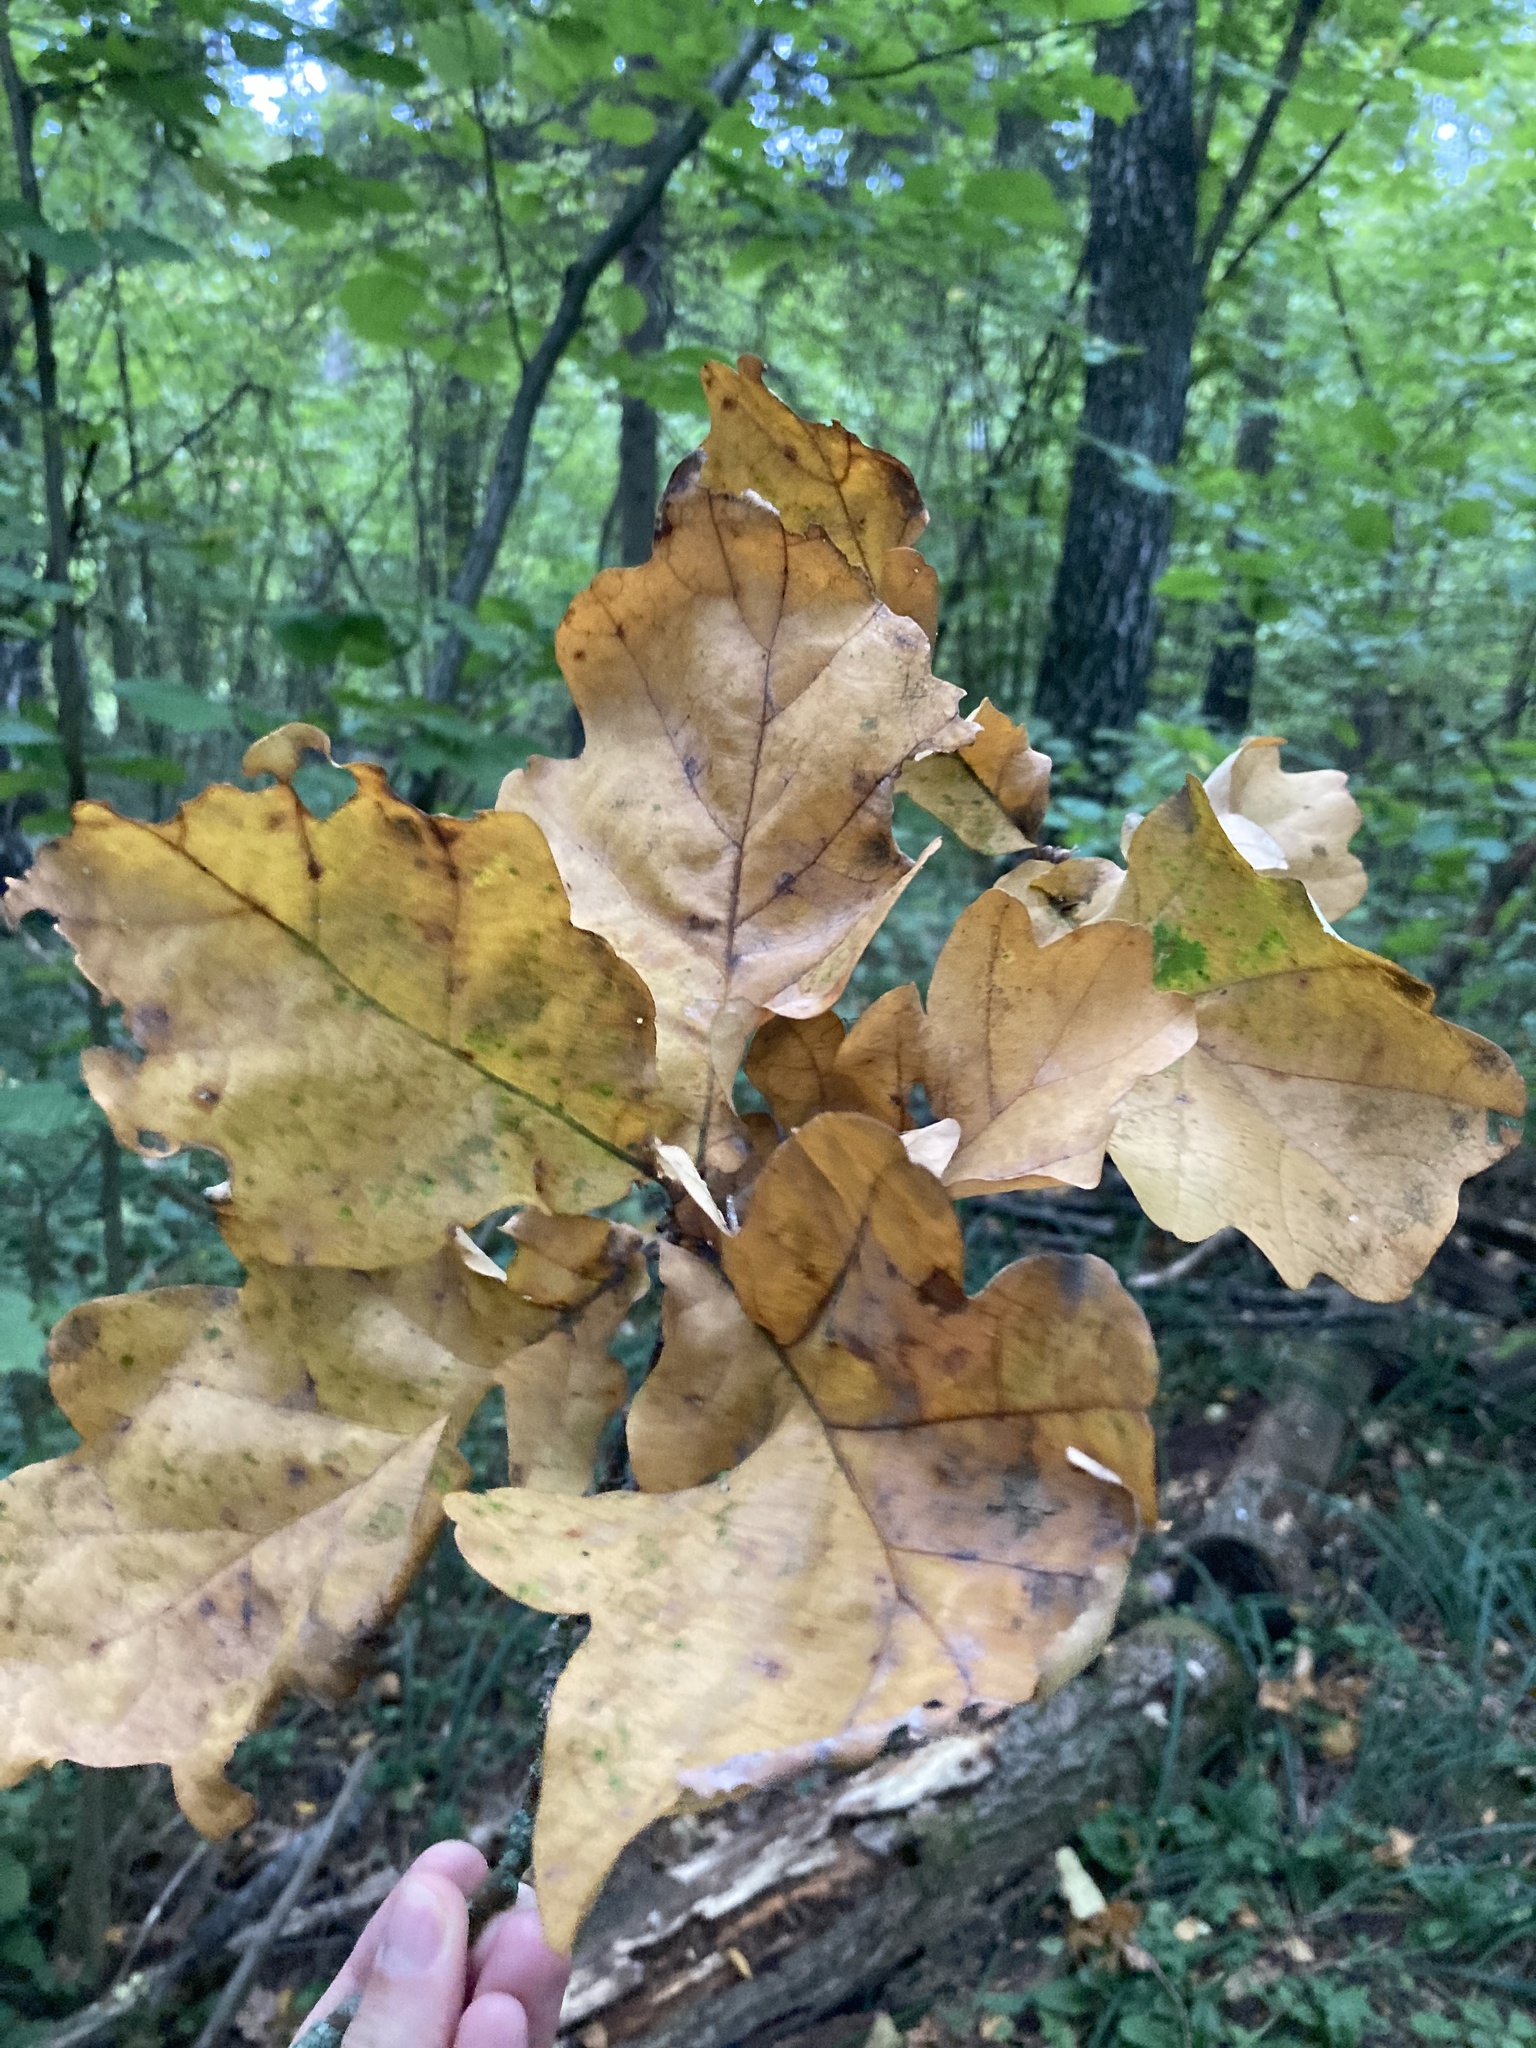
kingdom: Plantae
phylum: Tracheophyta
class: Magnoliopsida
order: Fagales
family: Fagaceae
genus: Quercus
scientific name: Quercus robur
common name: Pedunculate oak
